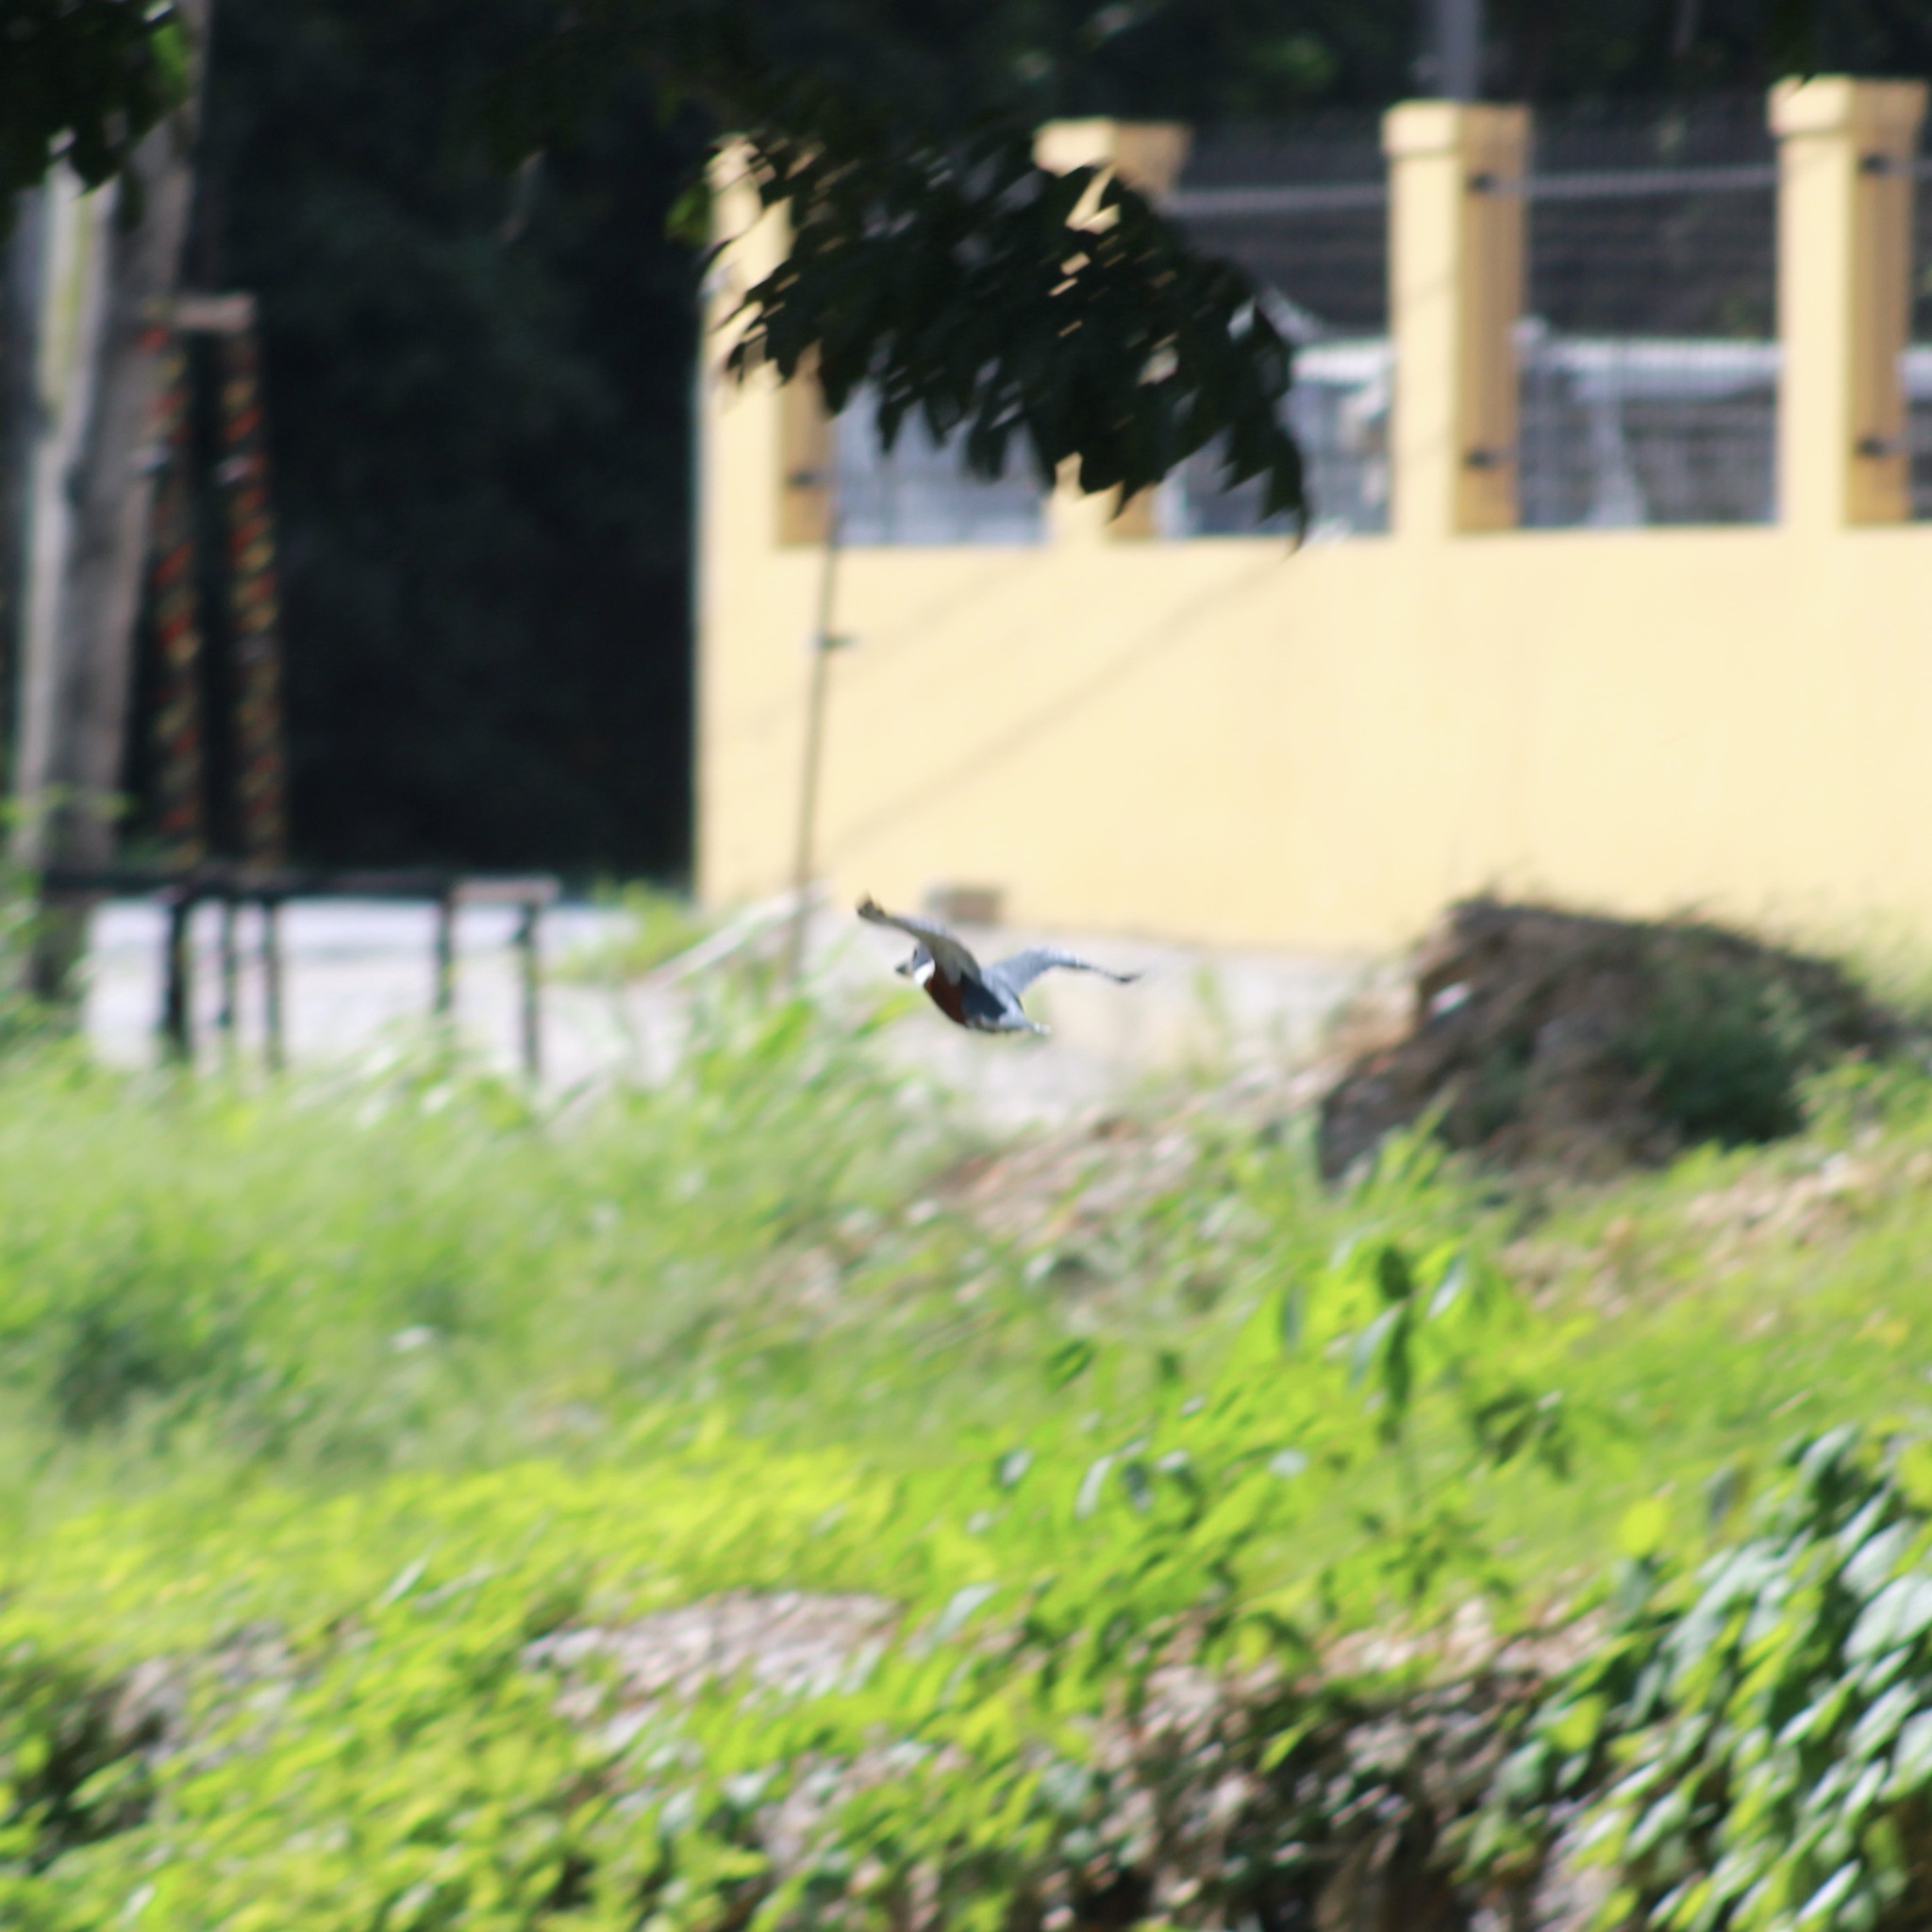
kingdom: Animalia
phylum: Chordata
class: Aves
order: Coraciiformes
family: Alcedinidae
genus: Megaceryle
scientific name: Megaceryle torquata
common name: Ringed kingfisher
